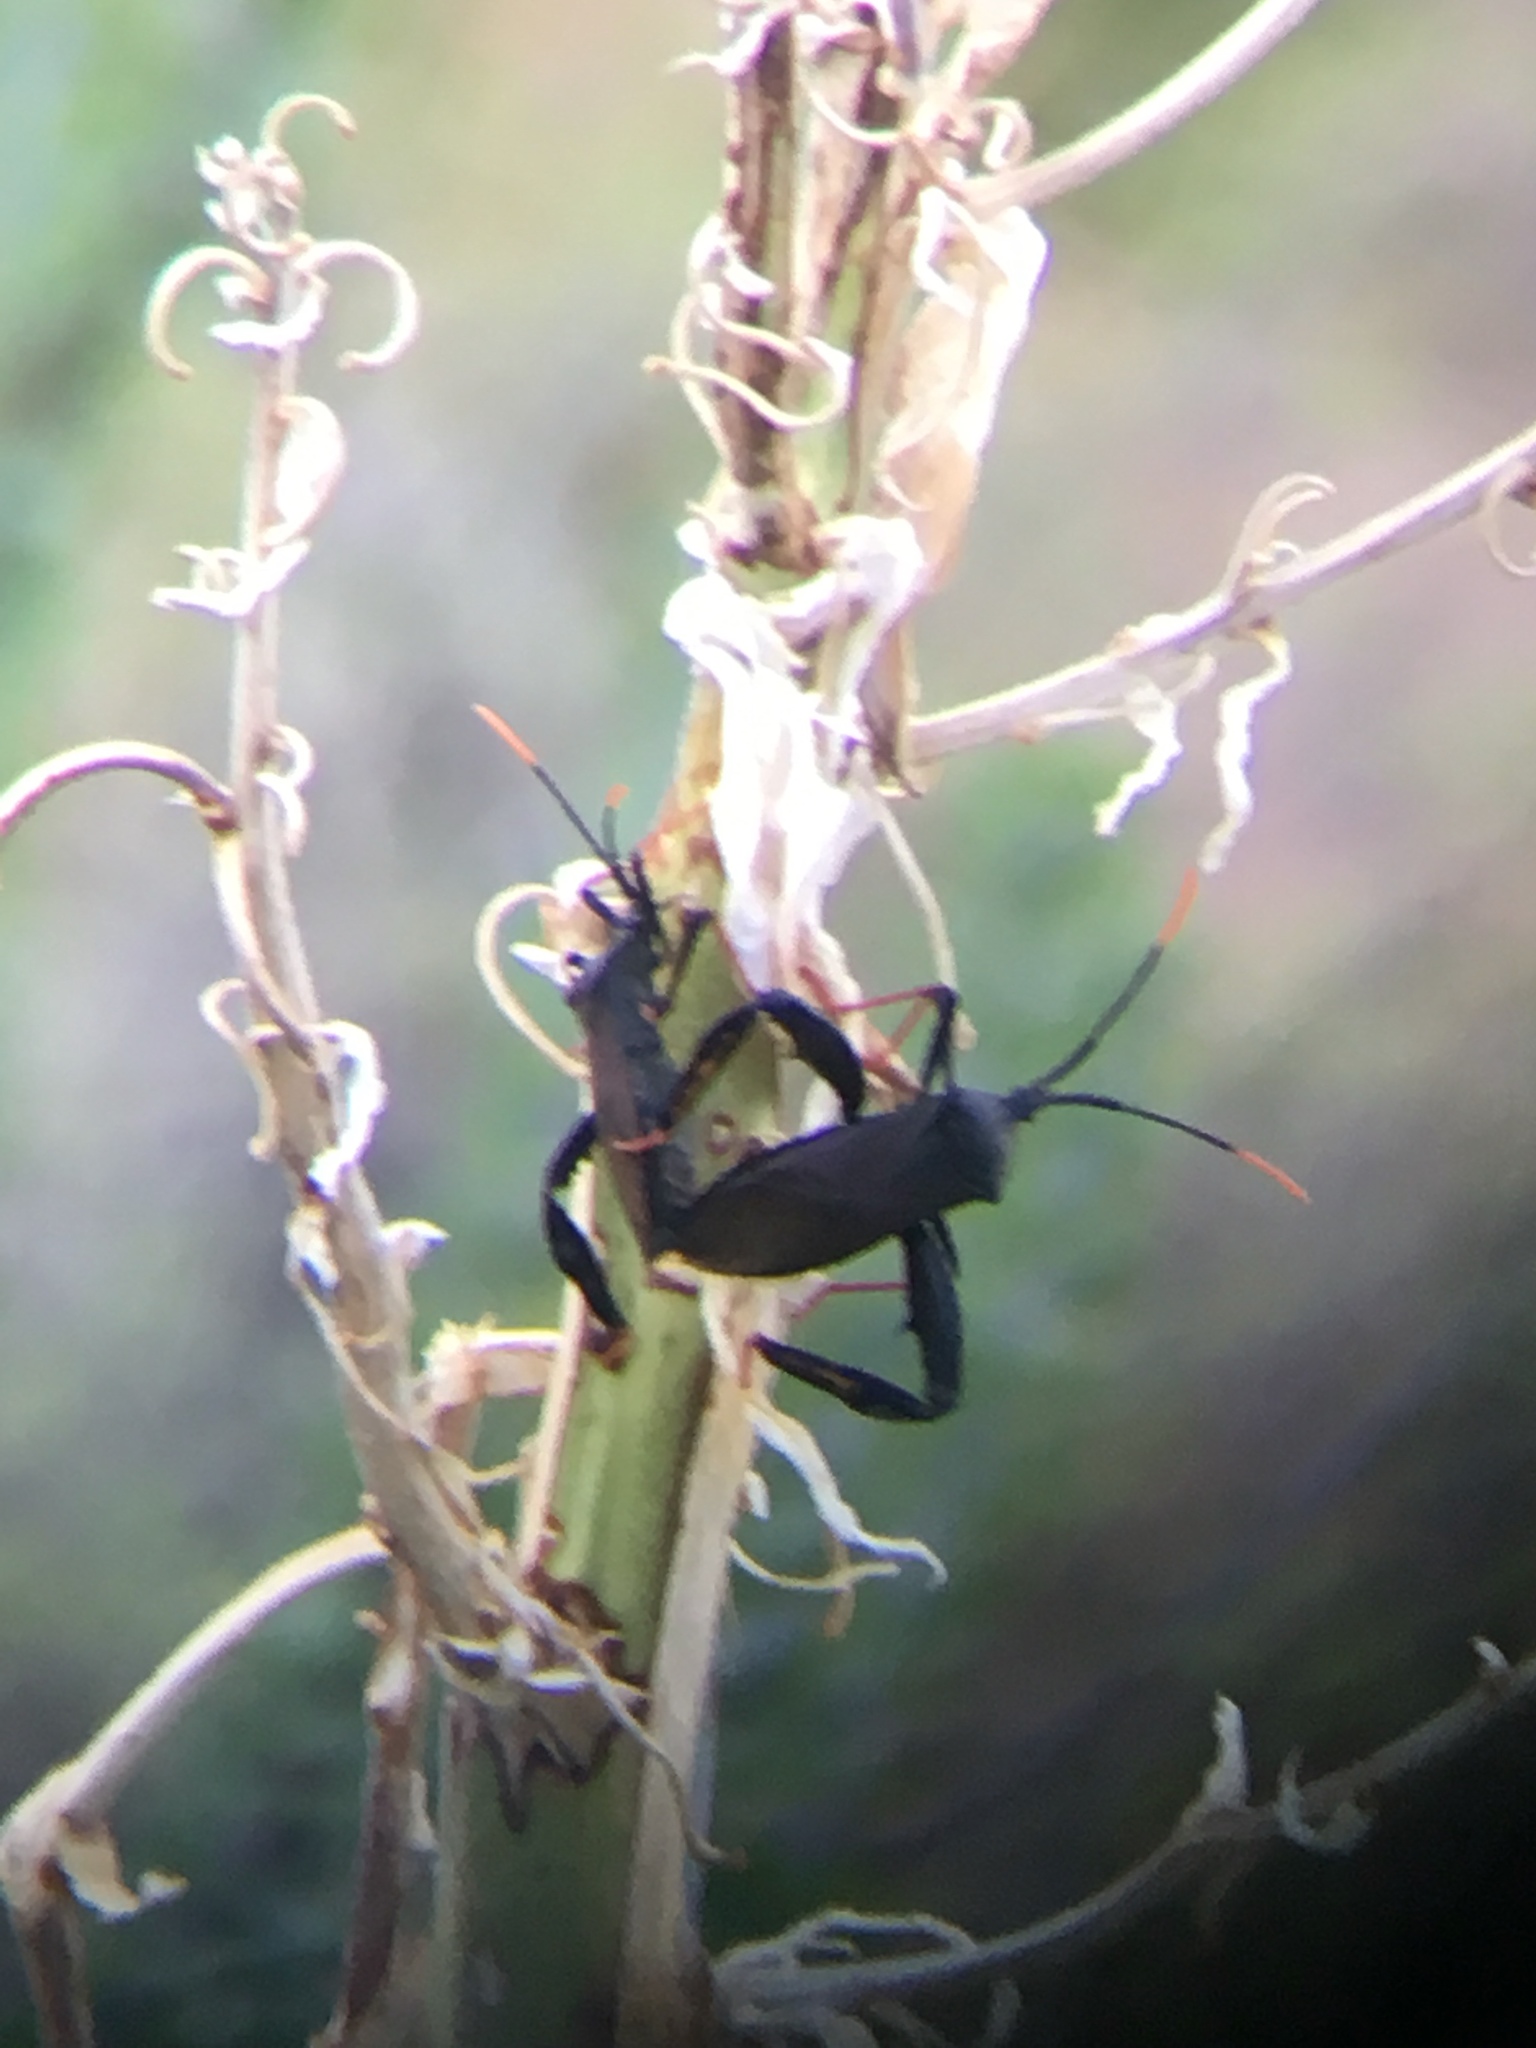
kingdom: Animalia
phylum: Arthropoda
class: Insecta
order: Hemiptera
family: Coreidae
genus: Acanthocephala
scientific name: Acanthocephala thomasi
